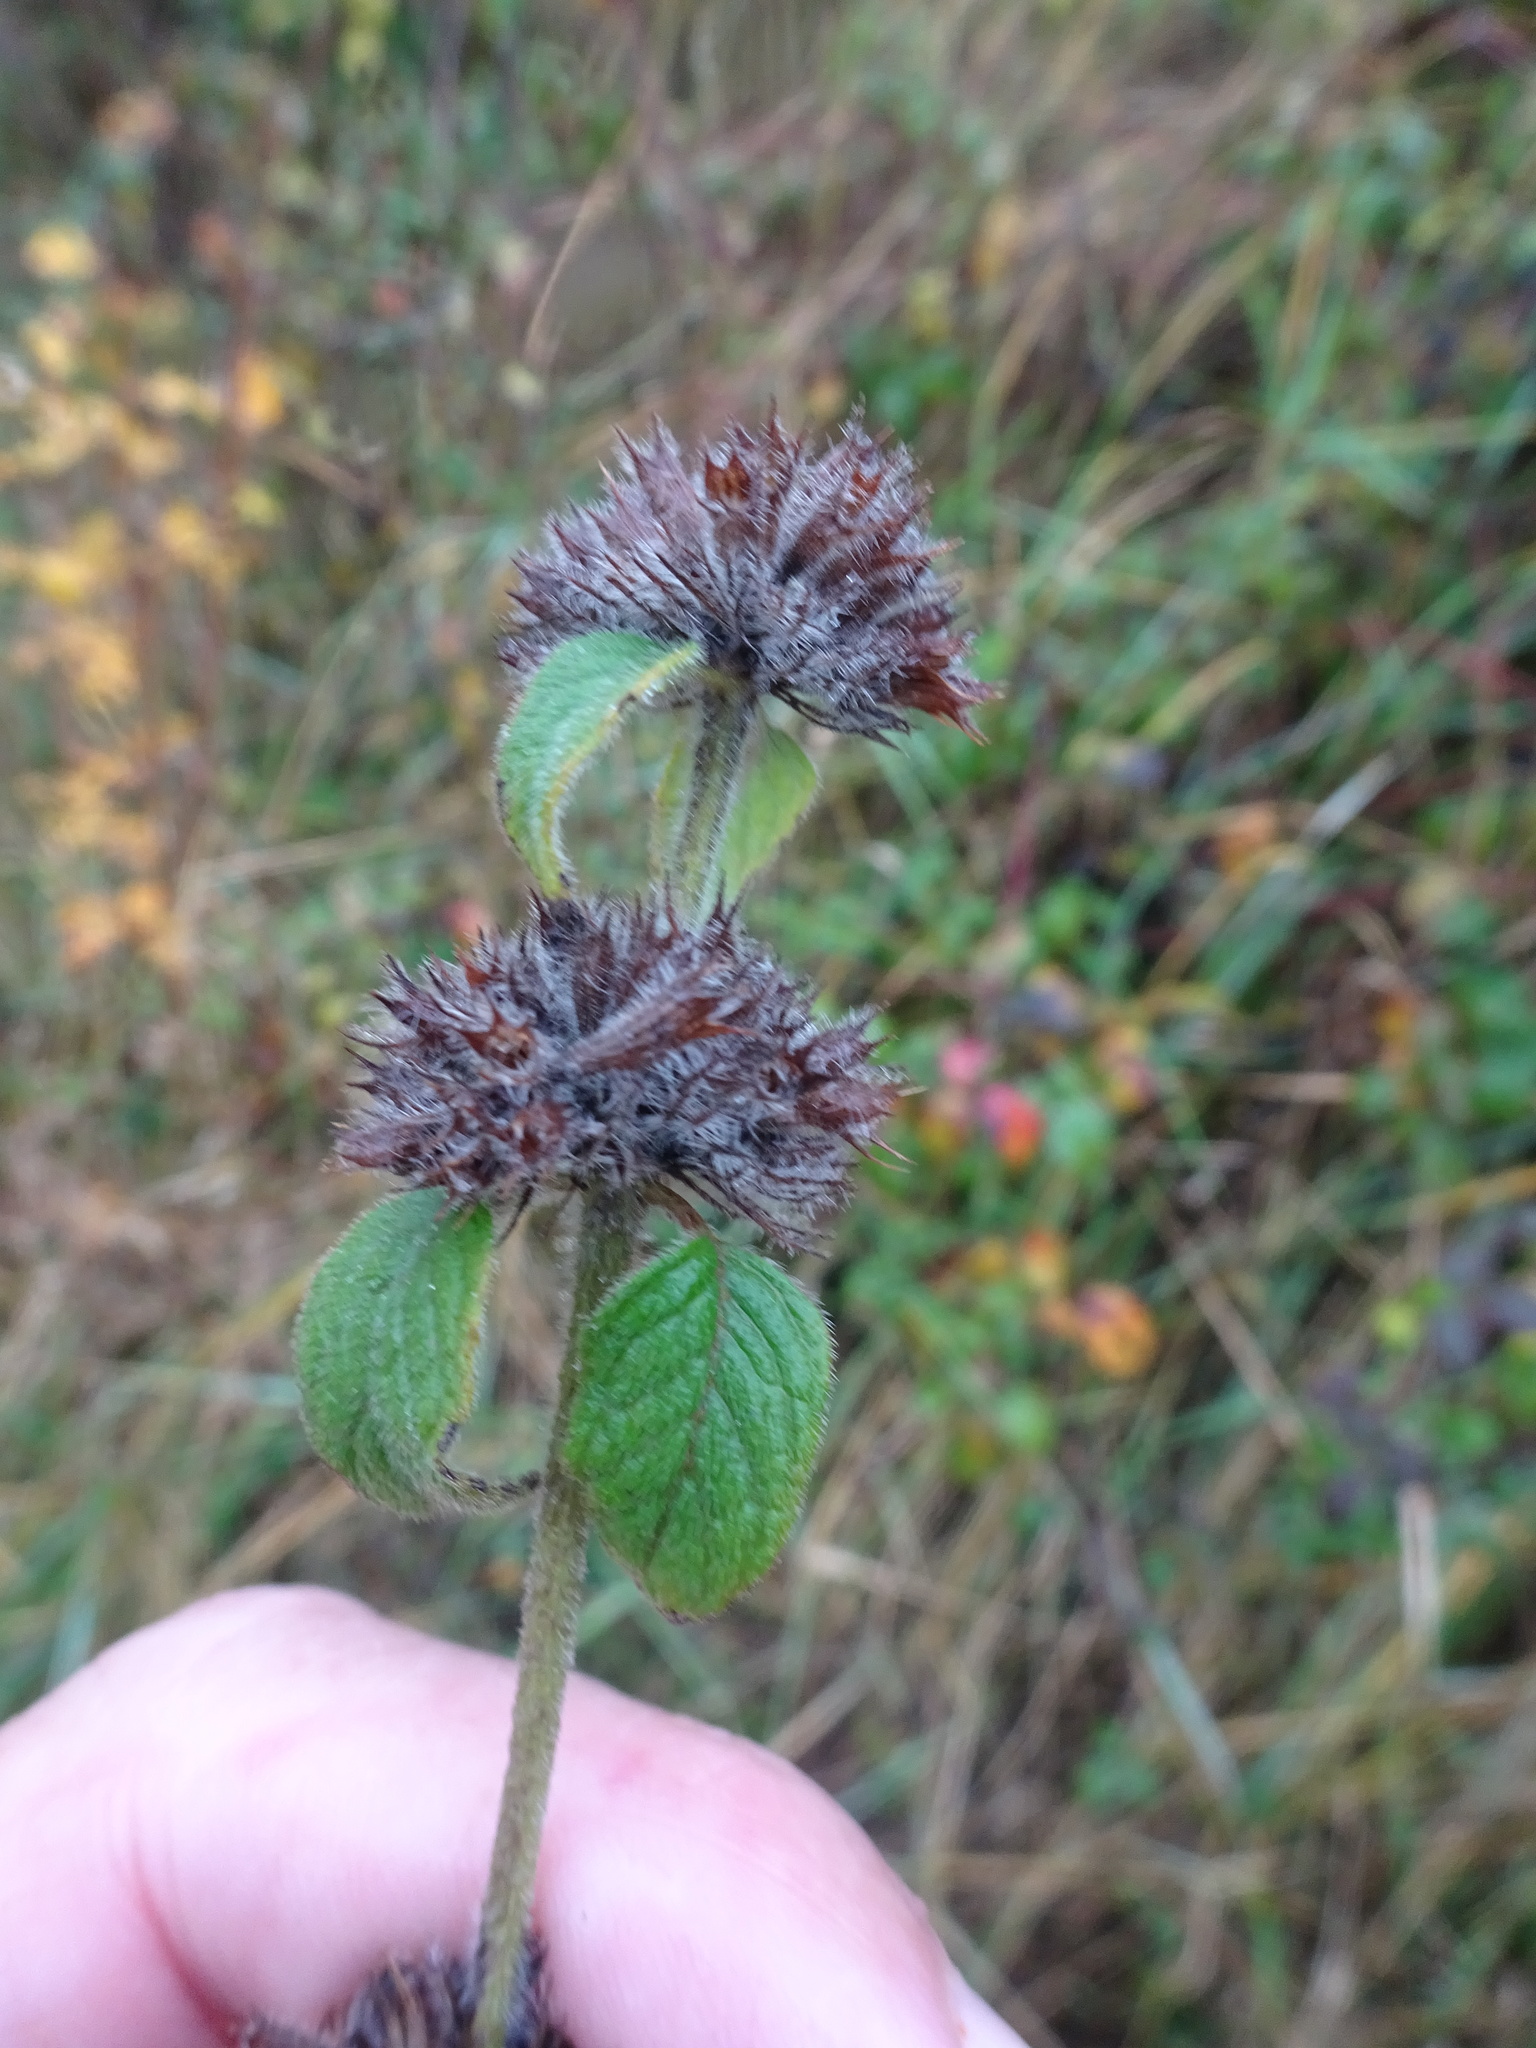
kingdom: Plantae
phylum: Tracheophyta
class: Magnoliopsida
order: Lamiales
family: Lamiaceae
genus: Clinopodium
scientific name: Clinopodium vulgare
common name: Wild basil
